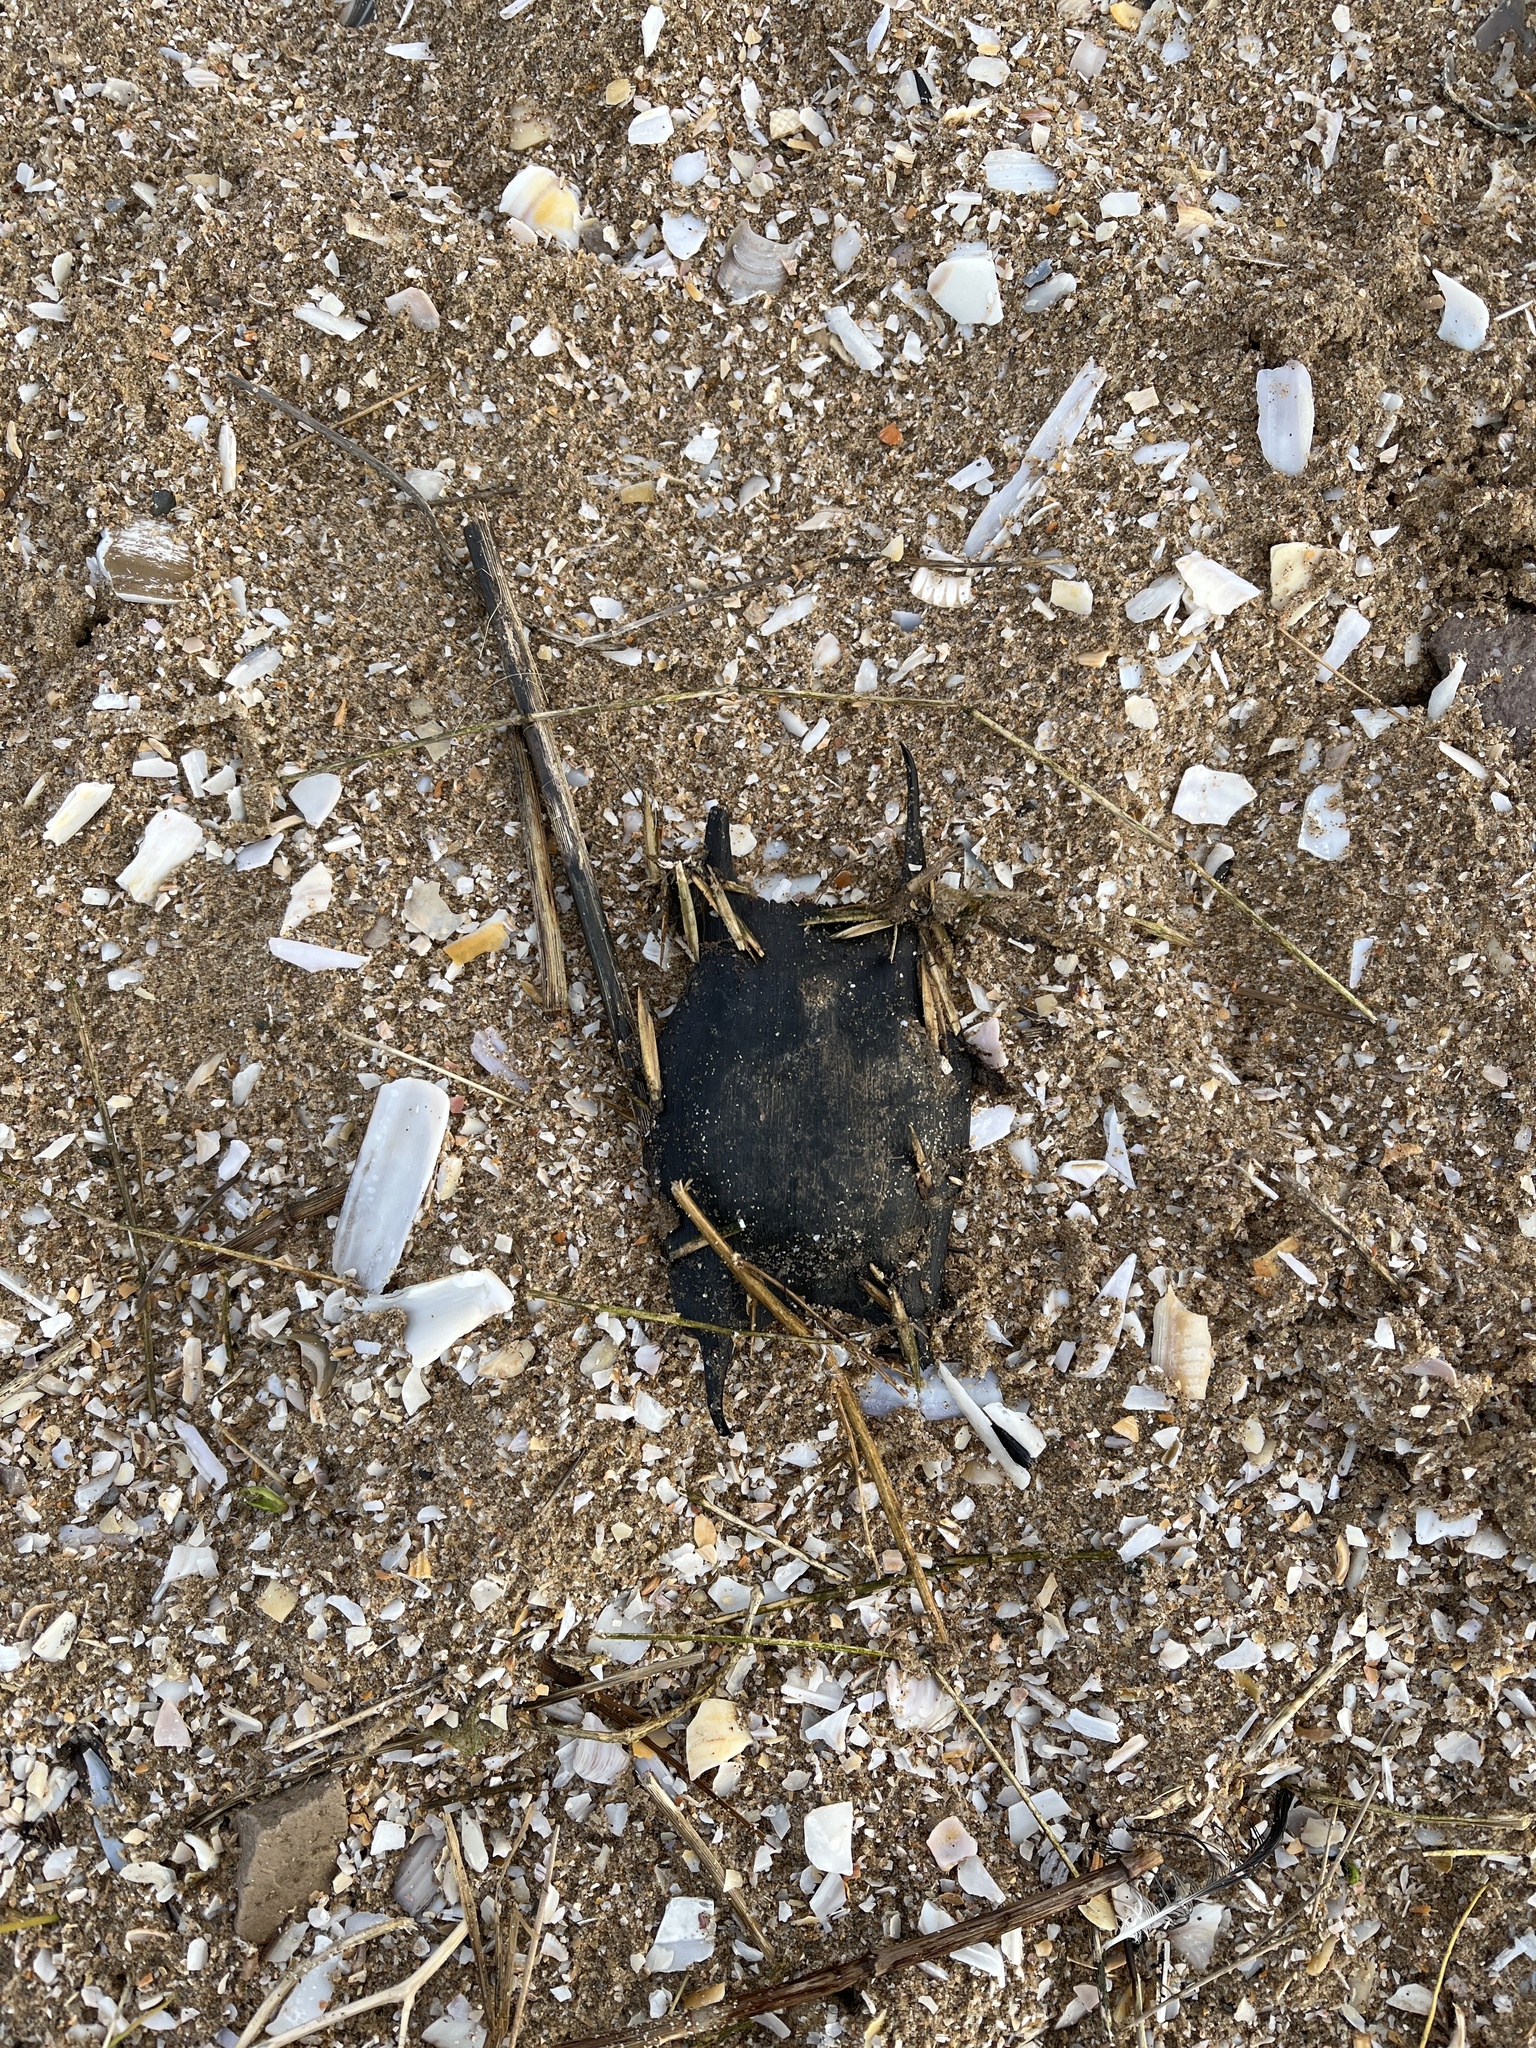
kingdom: Animalia
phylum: Chordata
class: Elasmobranchii
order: Rajiformes
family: Rajidae
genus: Raja
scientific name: Raja clavata
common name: Thornback ray
